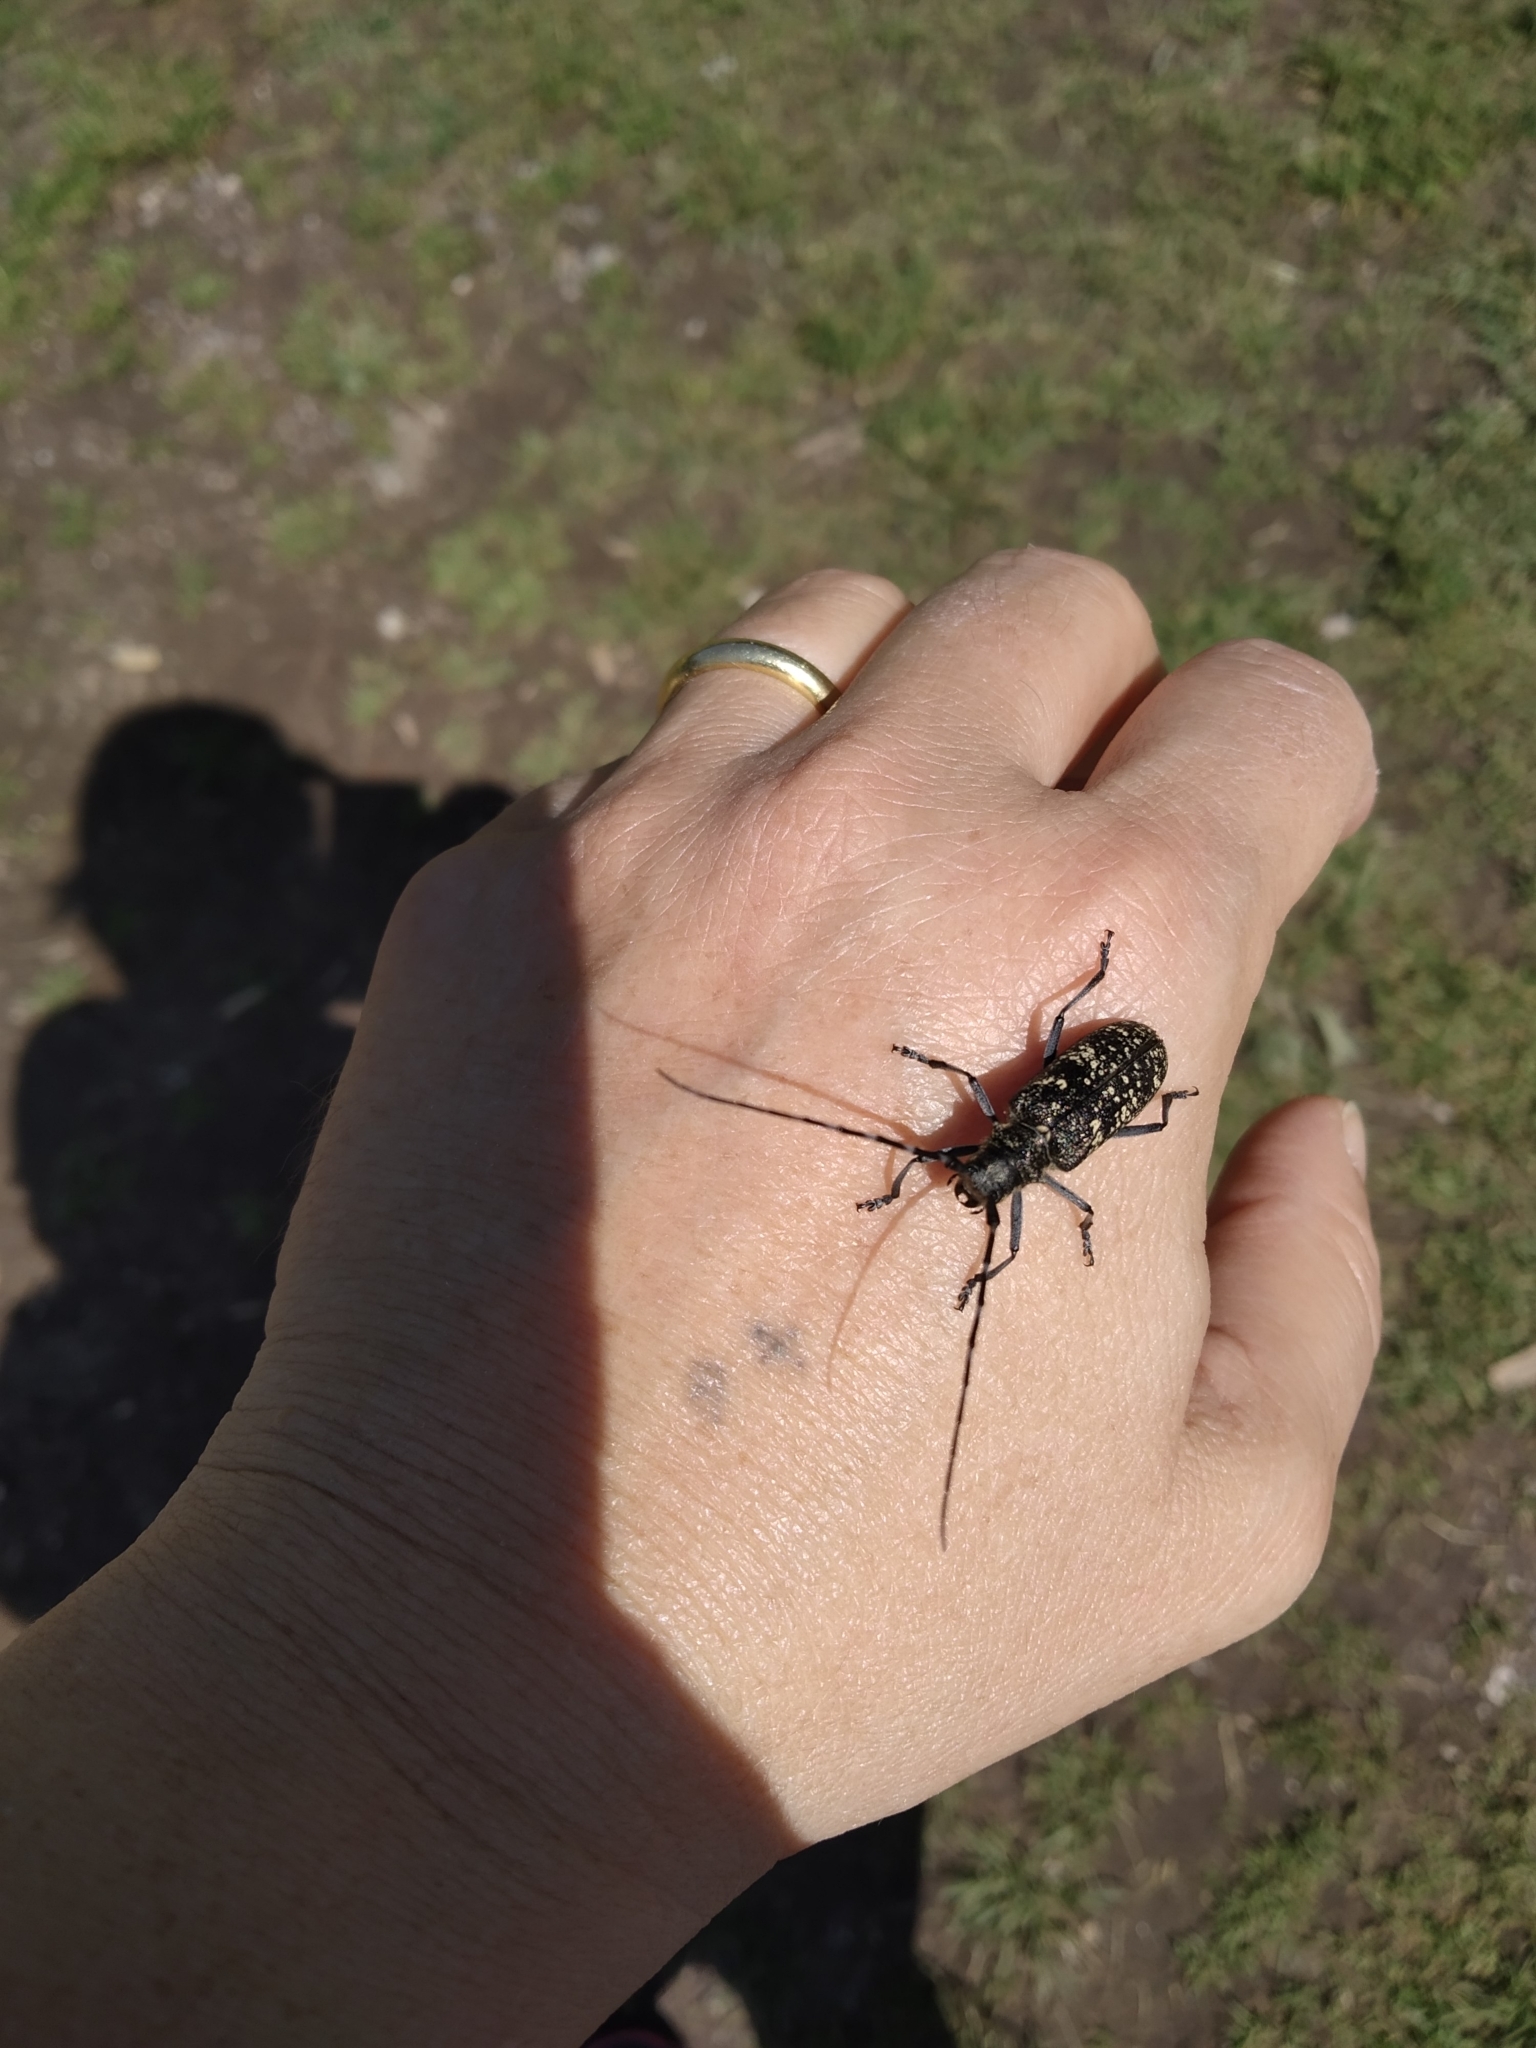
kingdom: Animalia
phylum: Arthropoda
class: Insecta
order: Coleoptera
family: Cerambycidae
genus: Monochamus
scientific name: Monochamus sutor
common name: Pine sawyer
